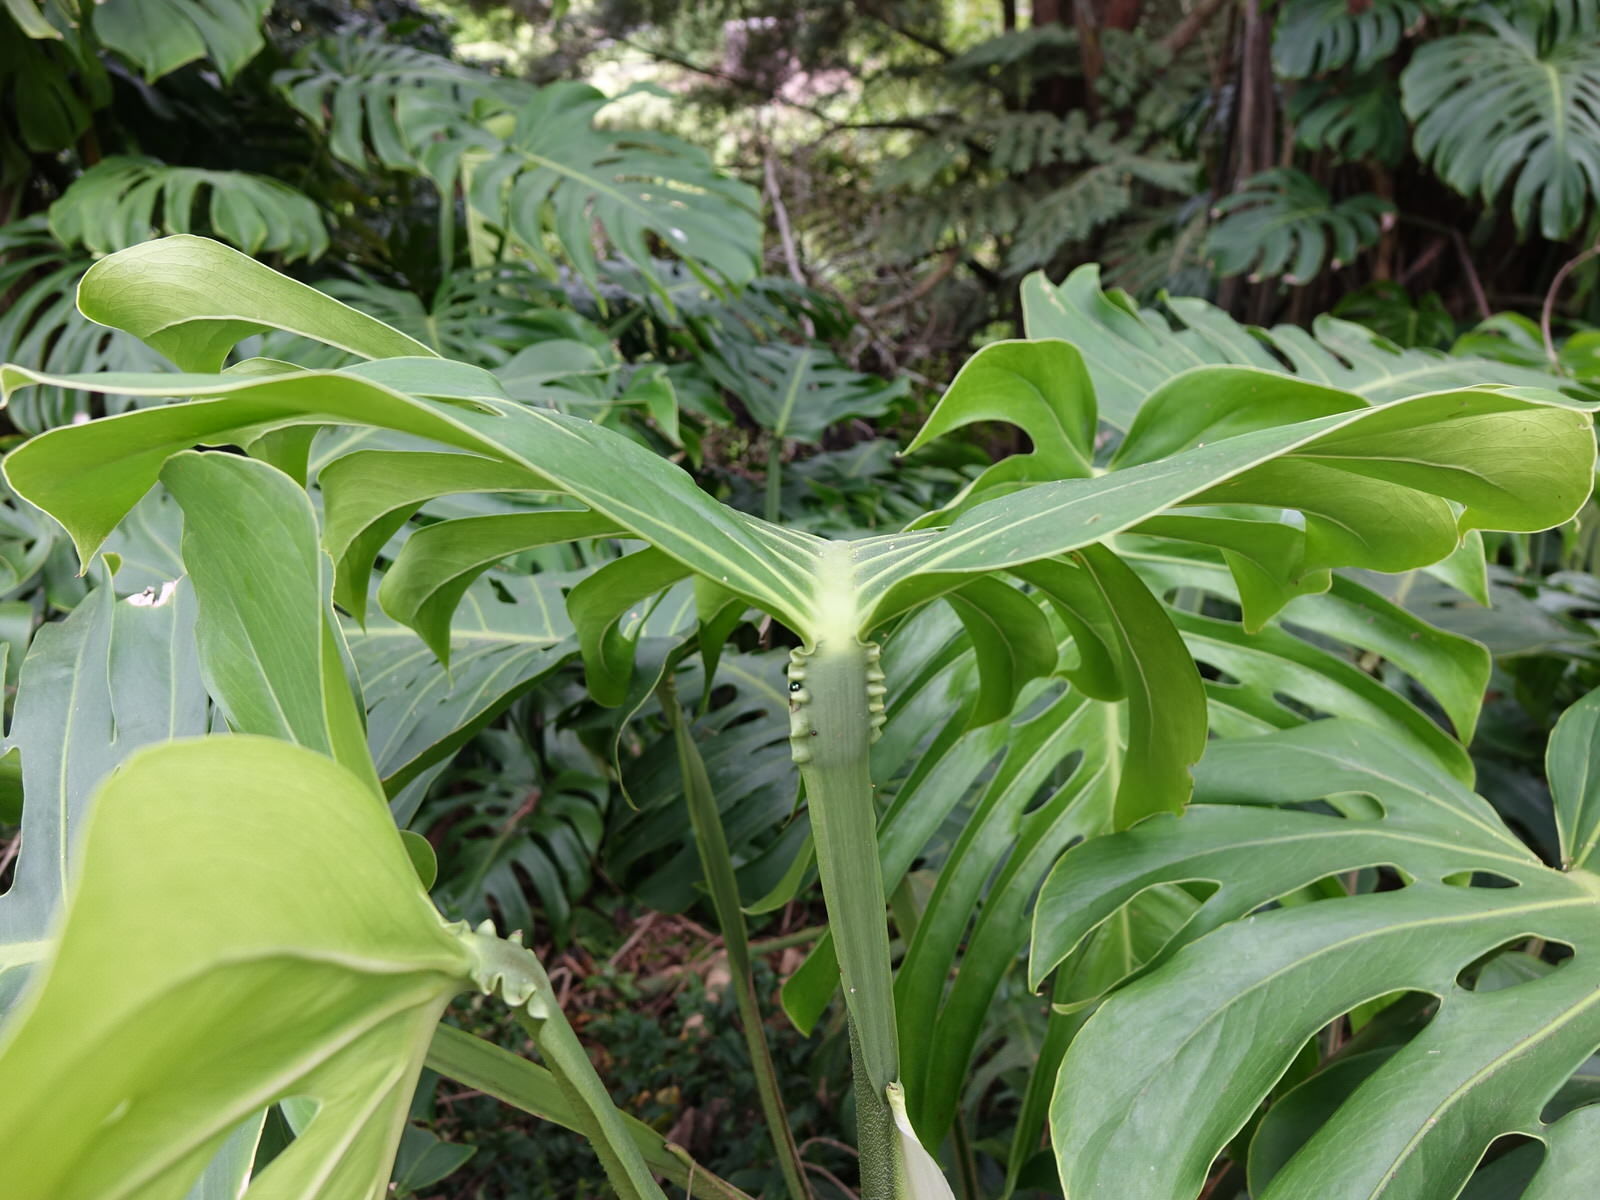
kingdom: Animalia
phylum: Arthropoda
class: Insecta
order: Coleoptera
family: Coccinellidae
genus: Halmus
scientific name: Halmus chalybeus
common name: Steel blue ladybird beetle
